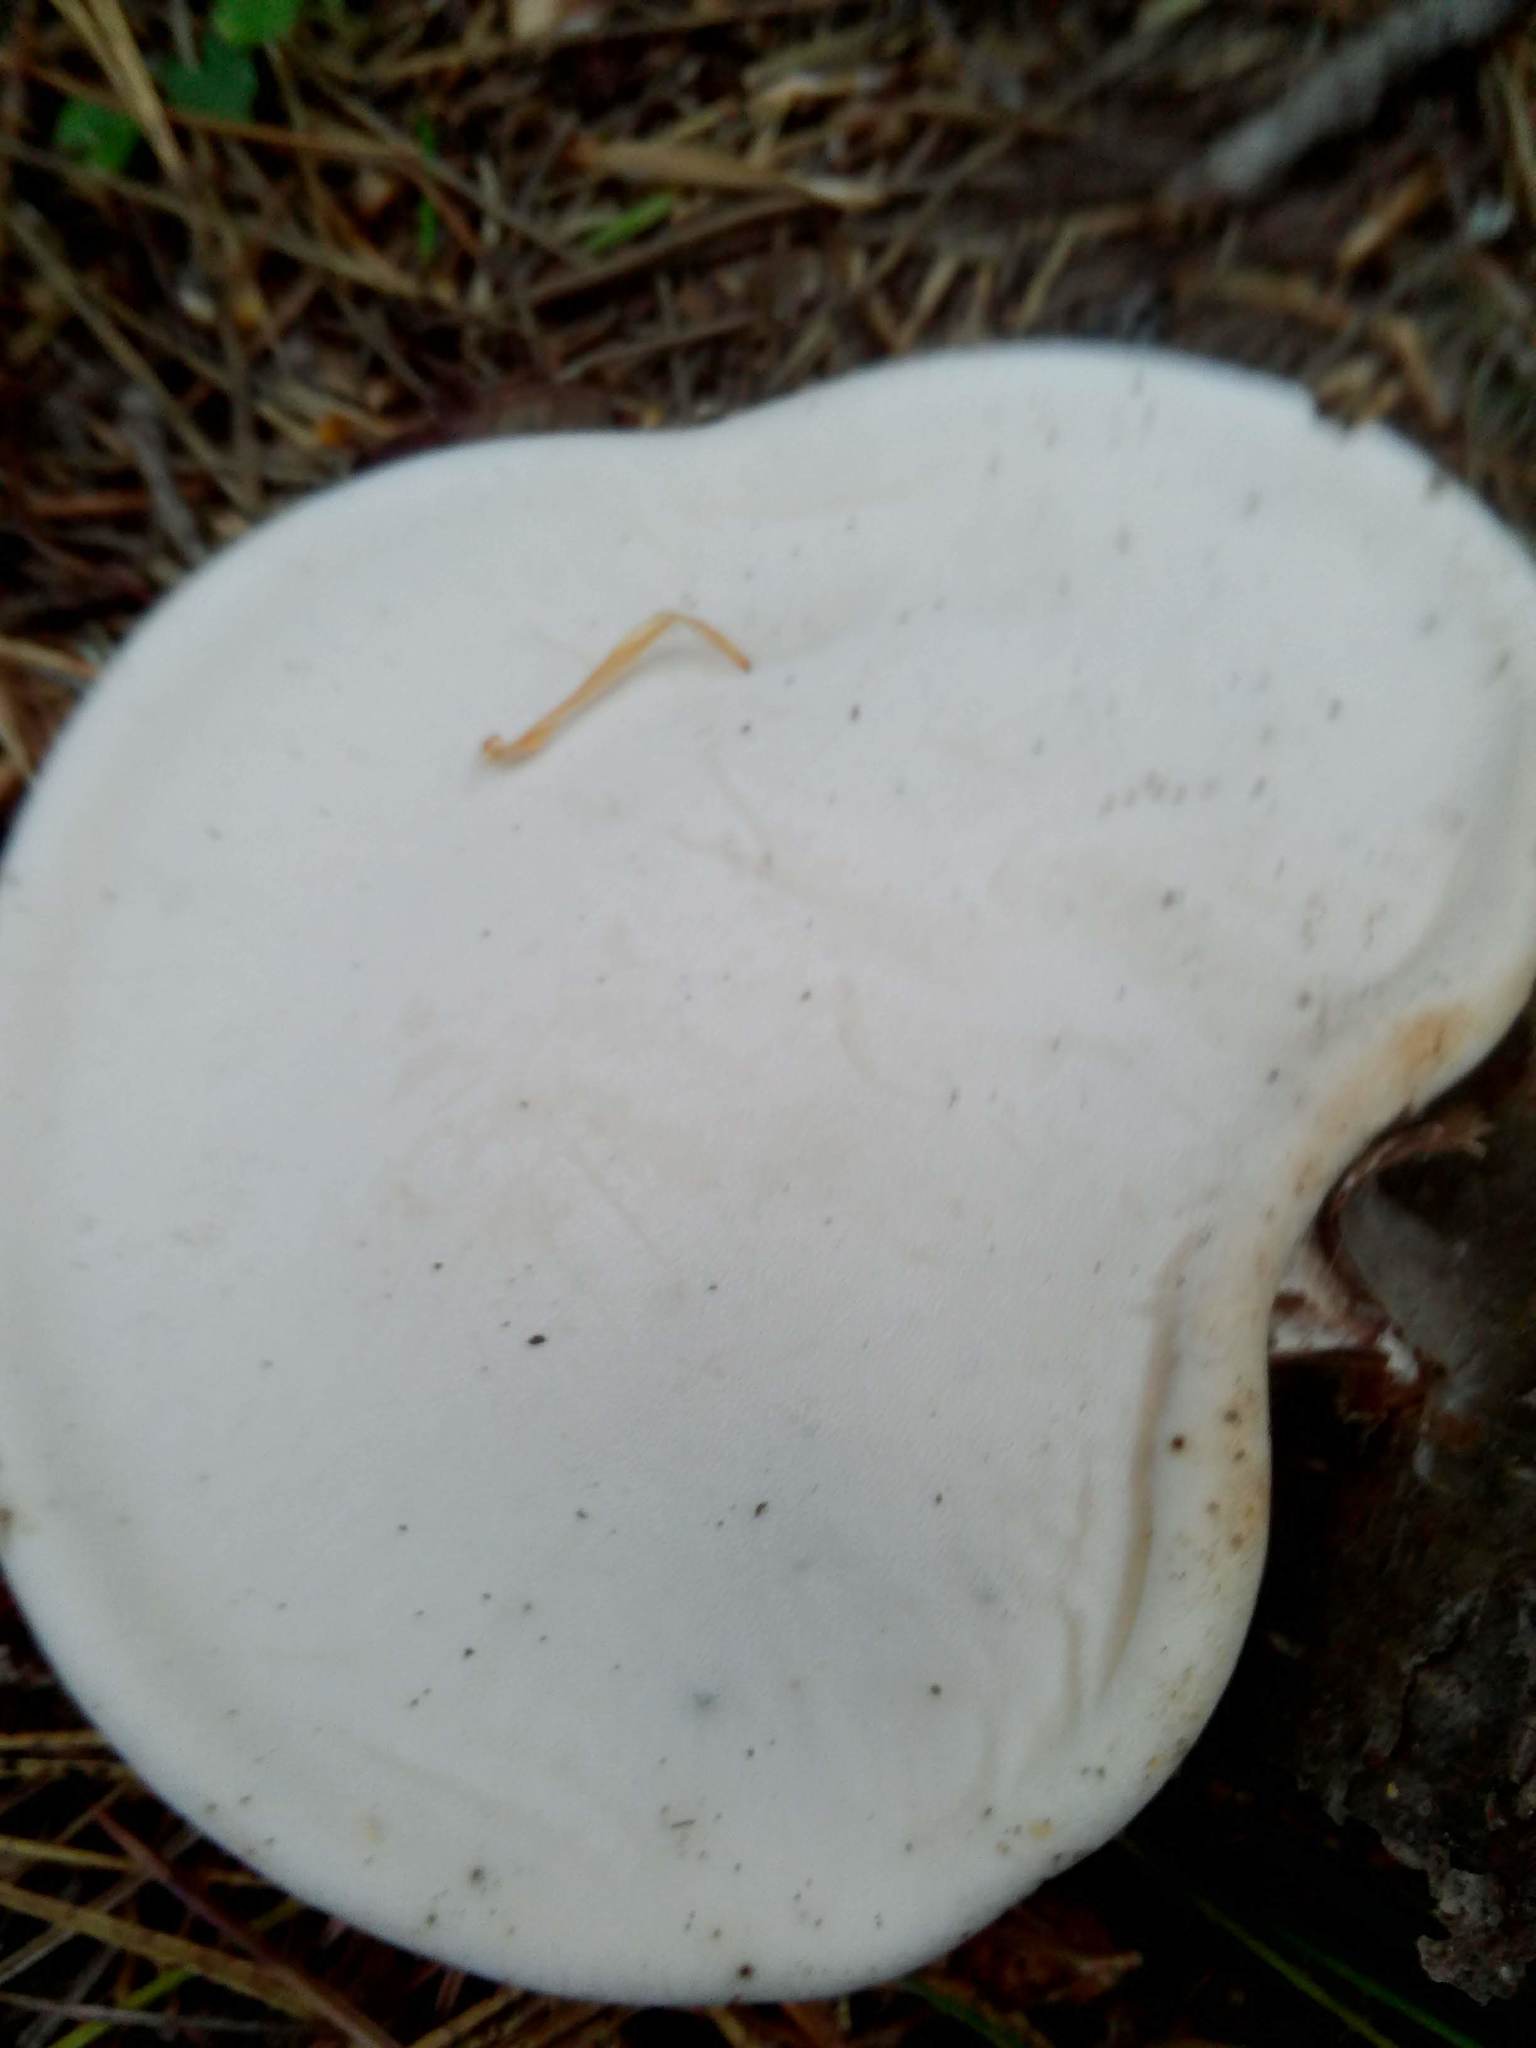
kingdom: Fungi
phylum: Basidiomycota
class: Agaricomycetes
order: Polyporales
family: Fomitopsidaceae
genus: Fomitopsis
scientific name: Fomitopsis betulina
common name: Birch polypore
